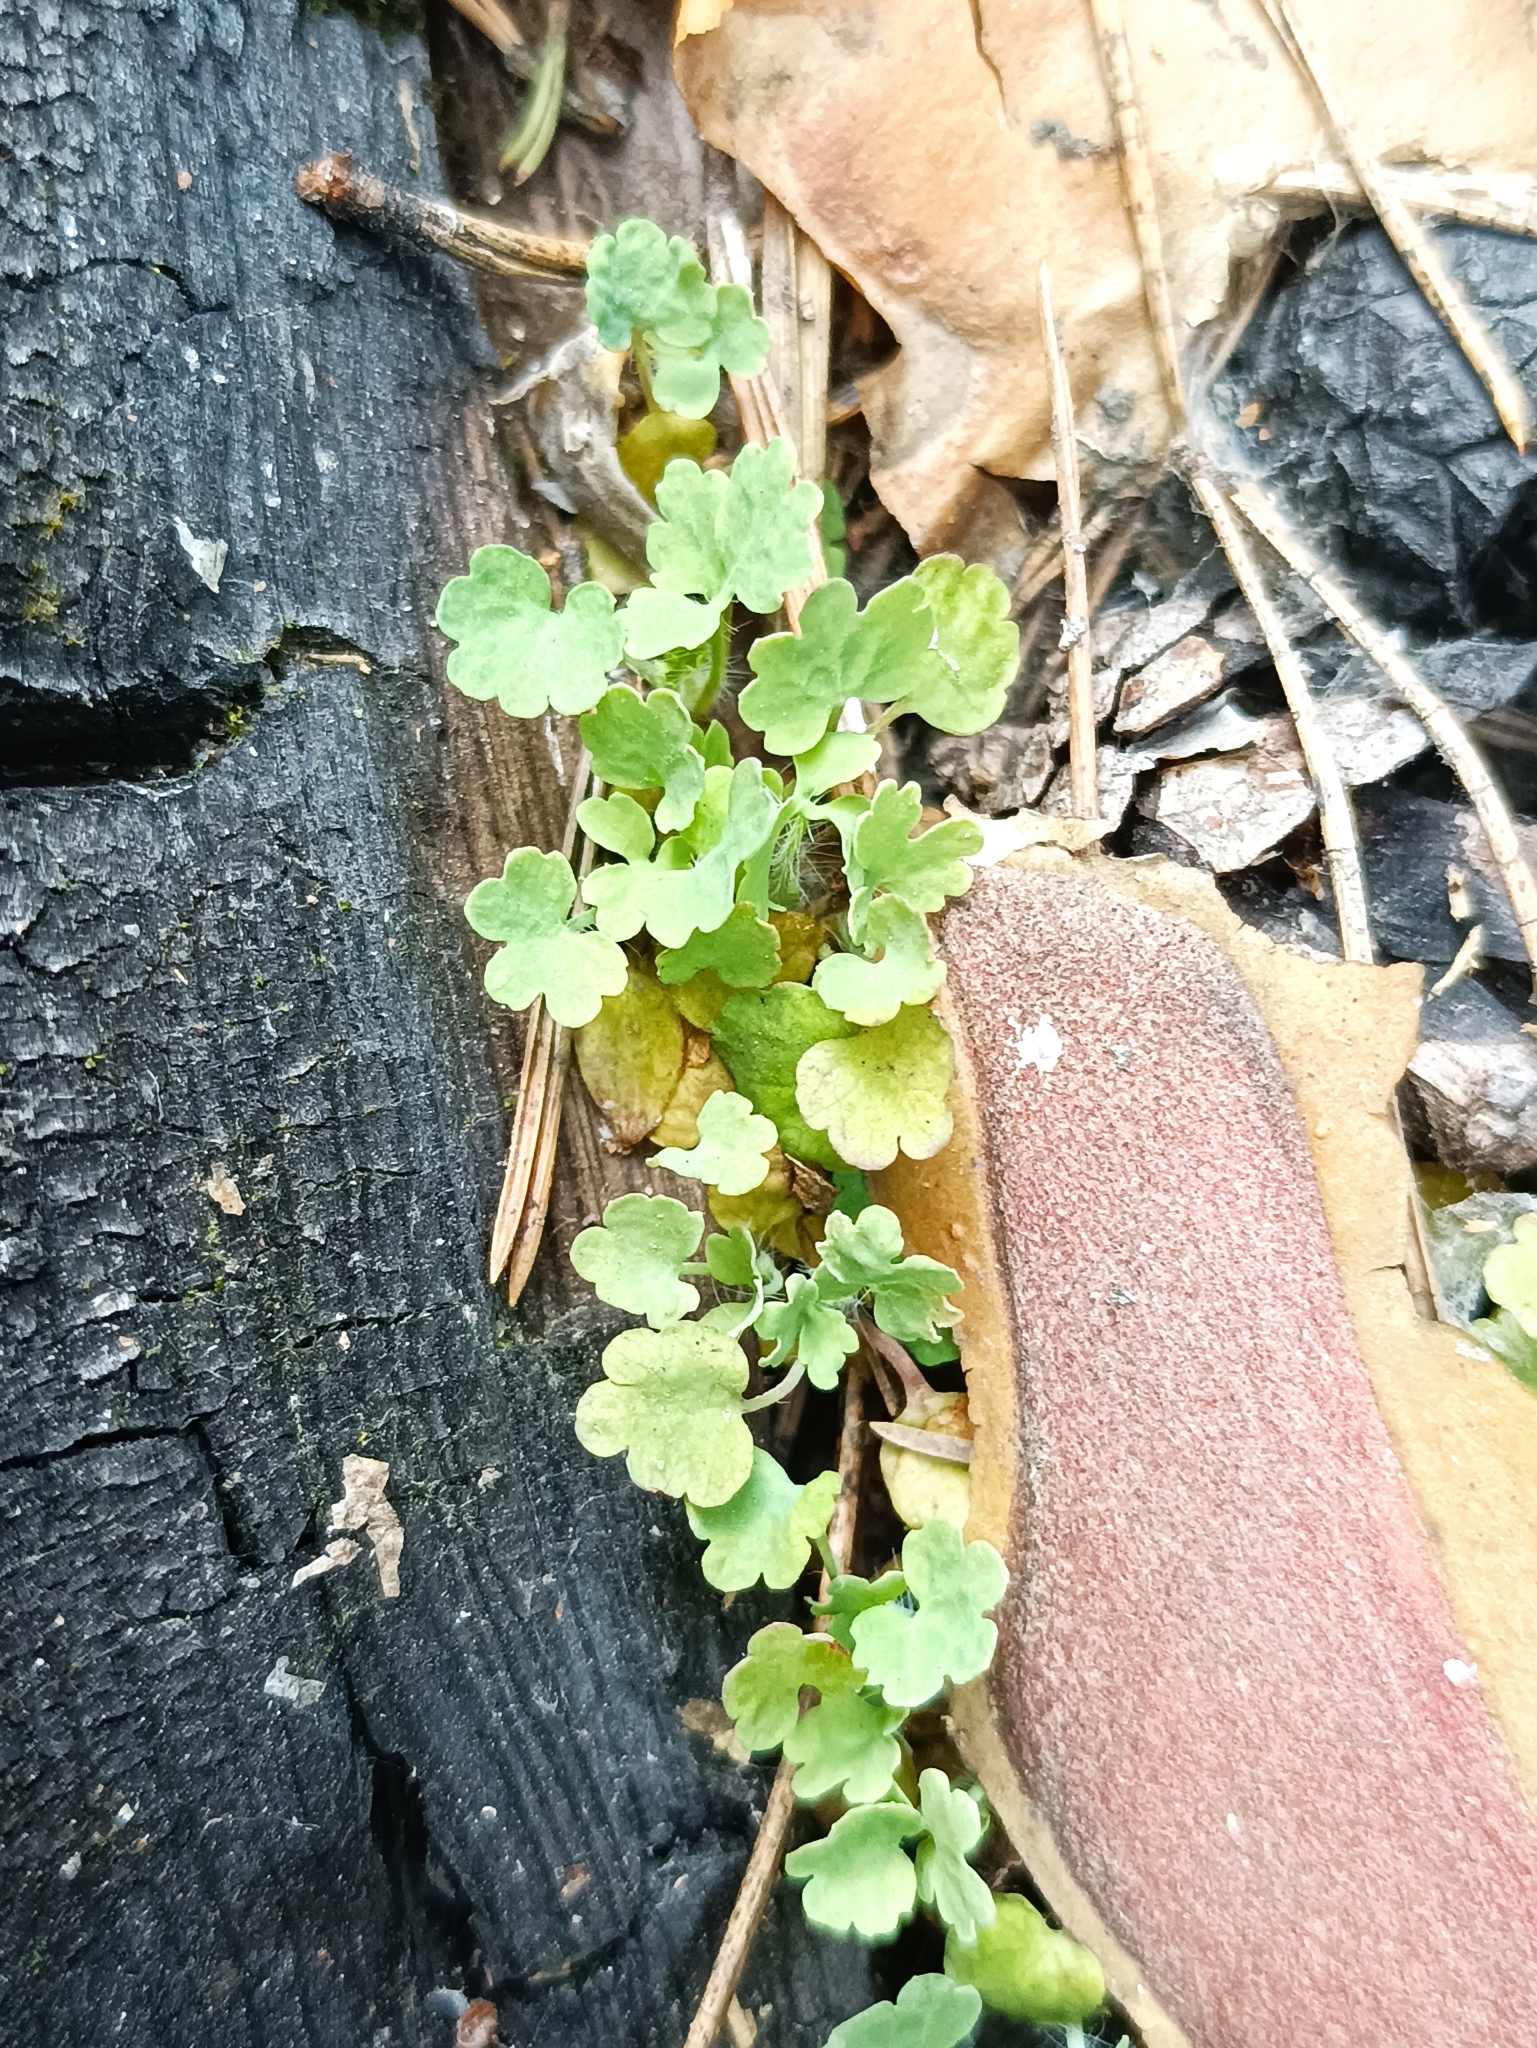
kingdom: Plantae
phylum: Tracheophyta
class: Magnoliopsida
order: Ranunculales
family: Papaveraceae
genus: Chelidonium
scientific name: Chelidonium majus
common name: Greater celandine
